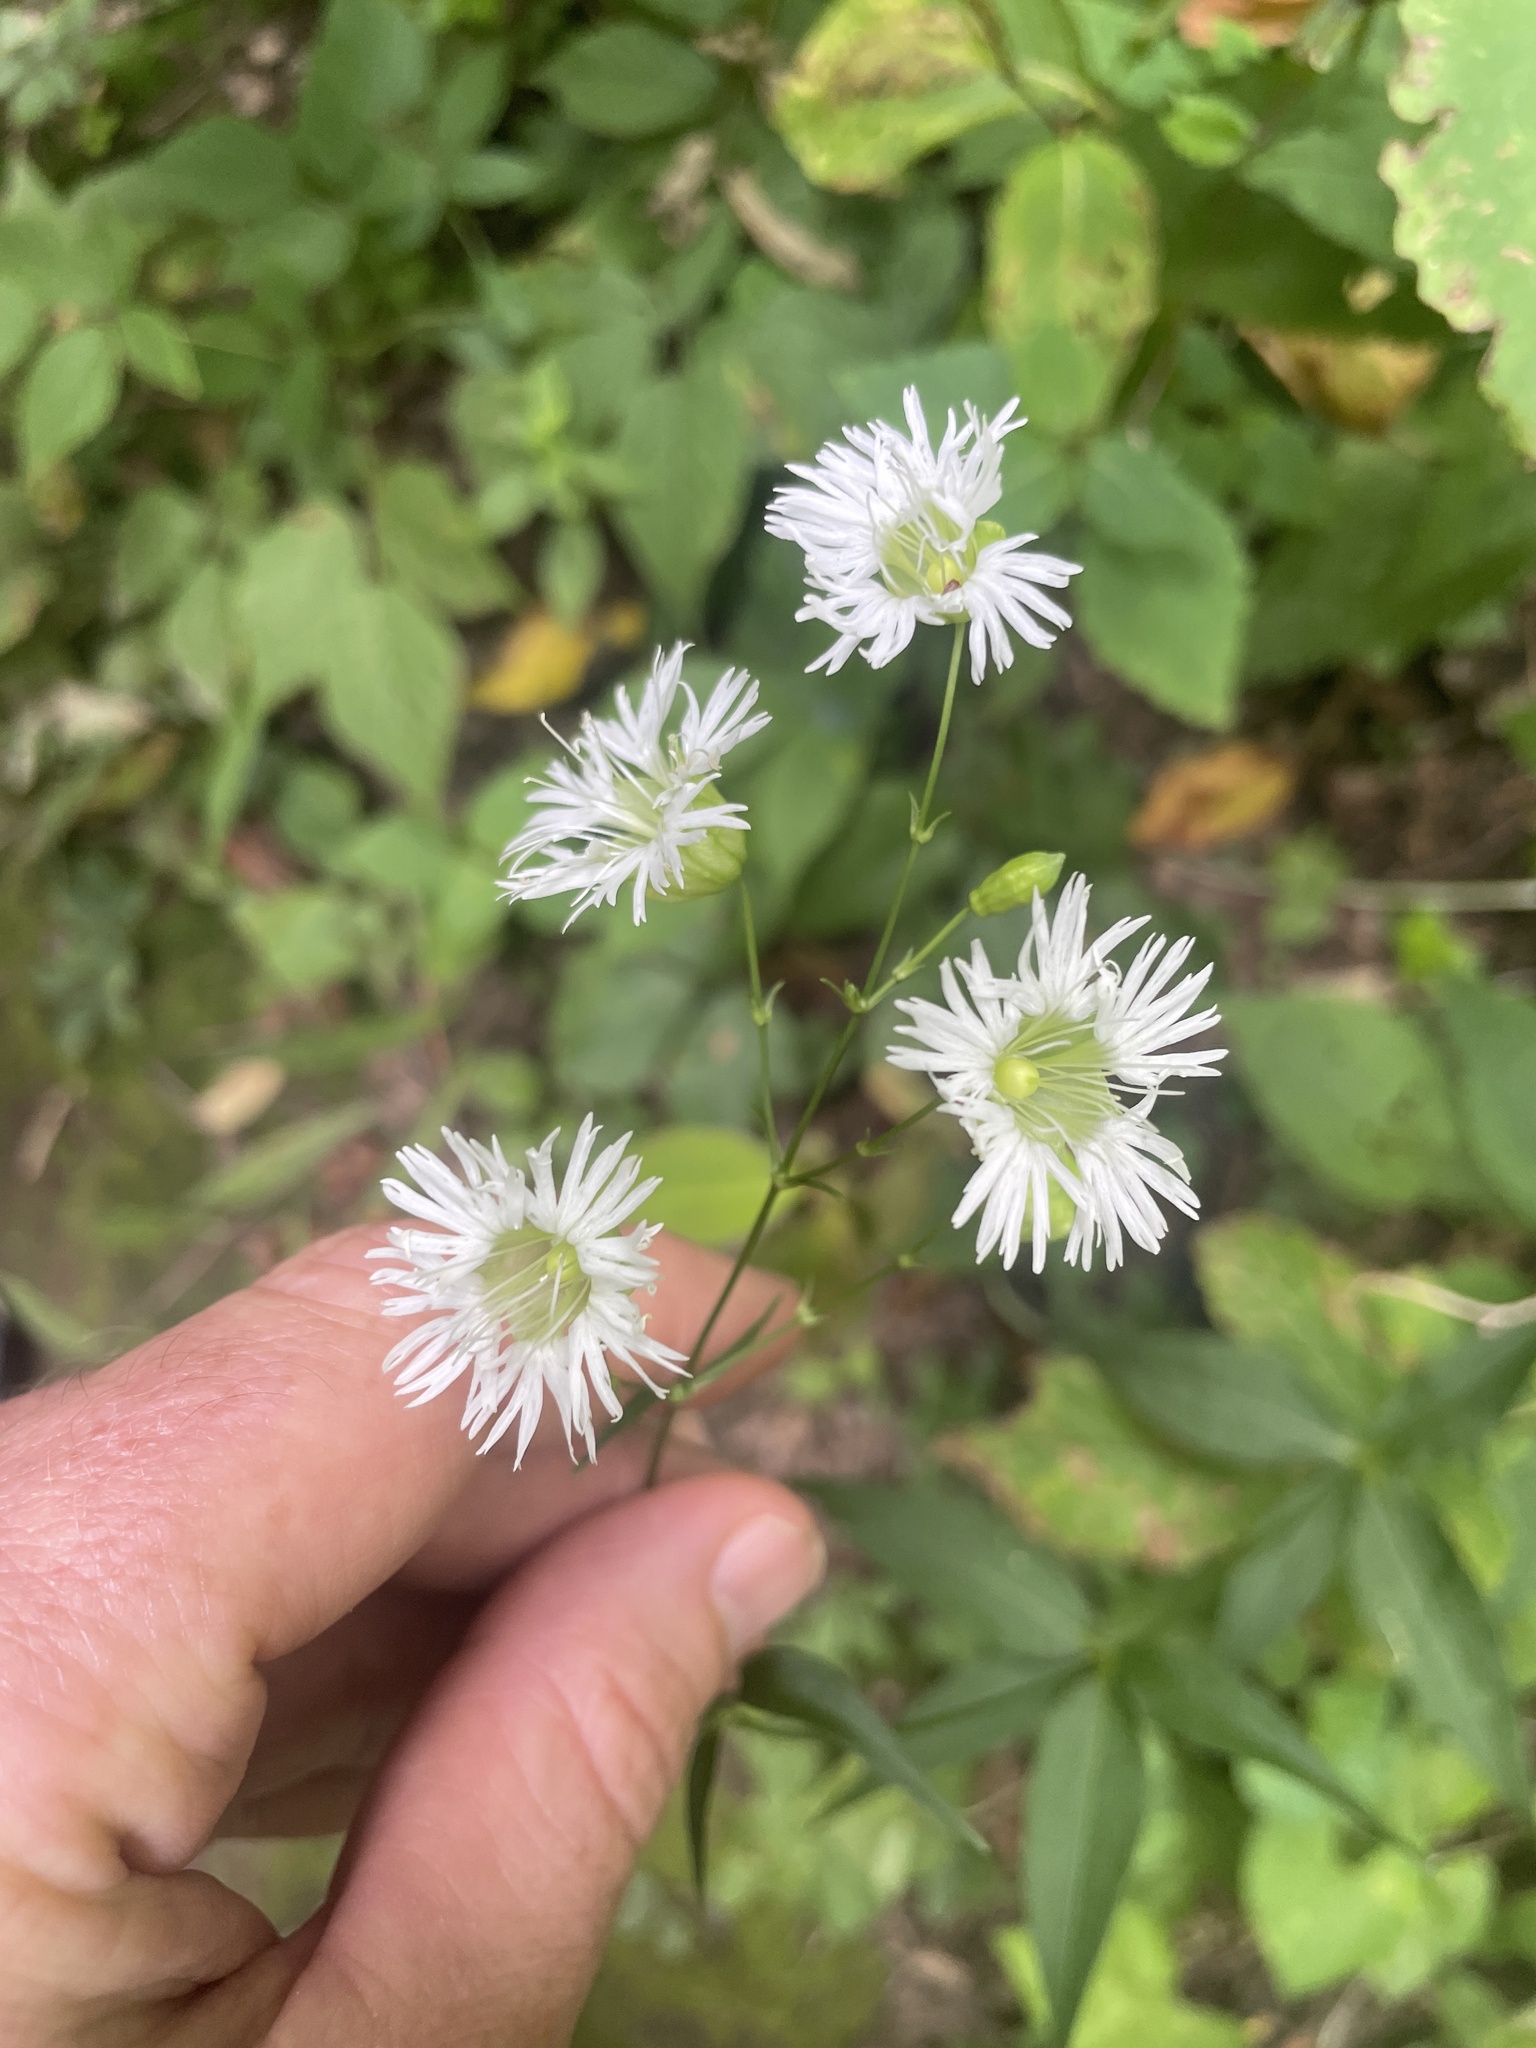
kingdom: Plantae
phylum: Tracheophyta
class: Magnoliopsida
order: Caryophyllales
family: Caryophyllaceae
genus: Silene
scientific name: Silene stellata
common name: Starry campion
